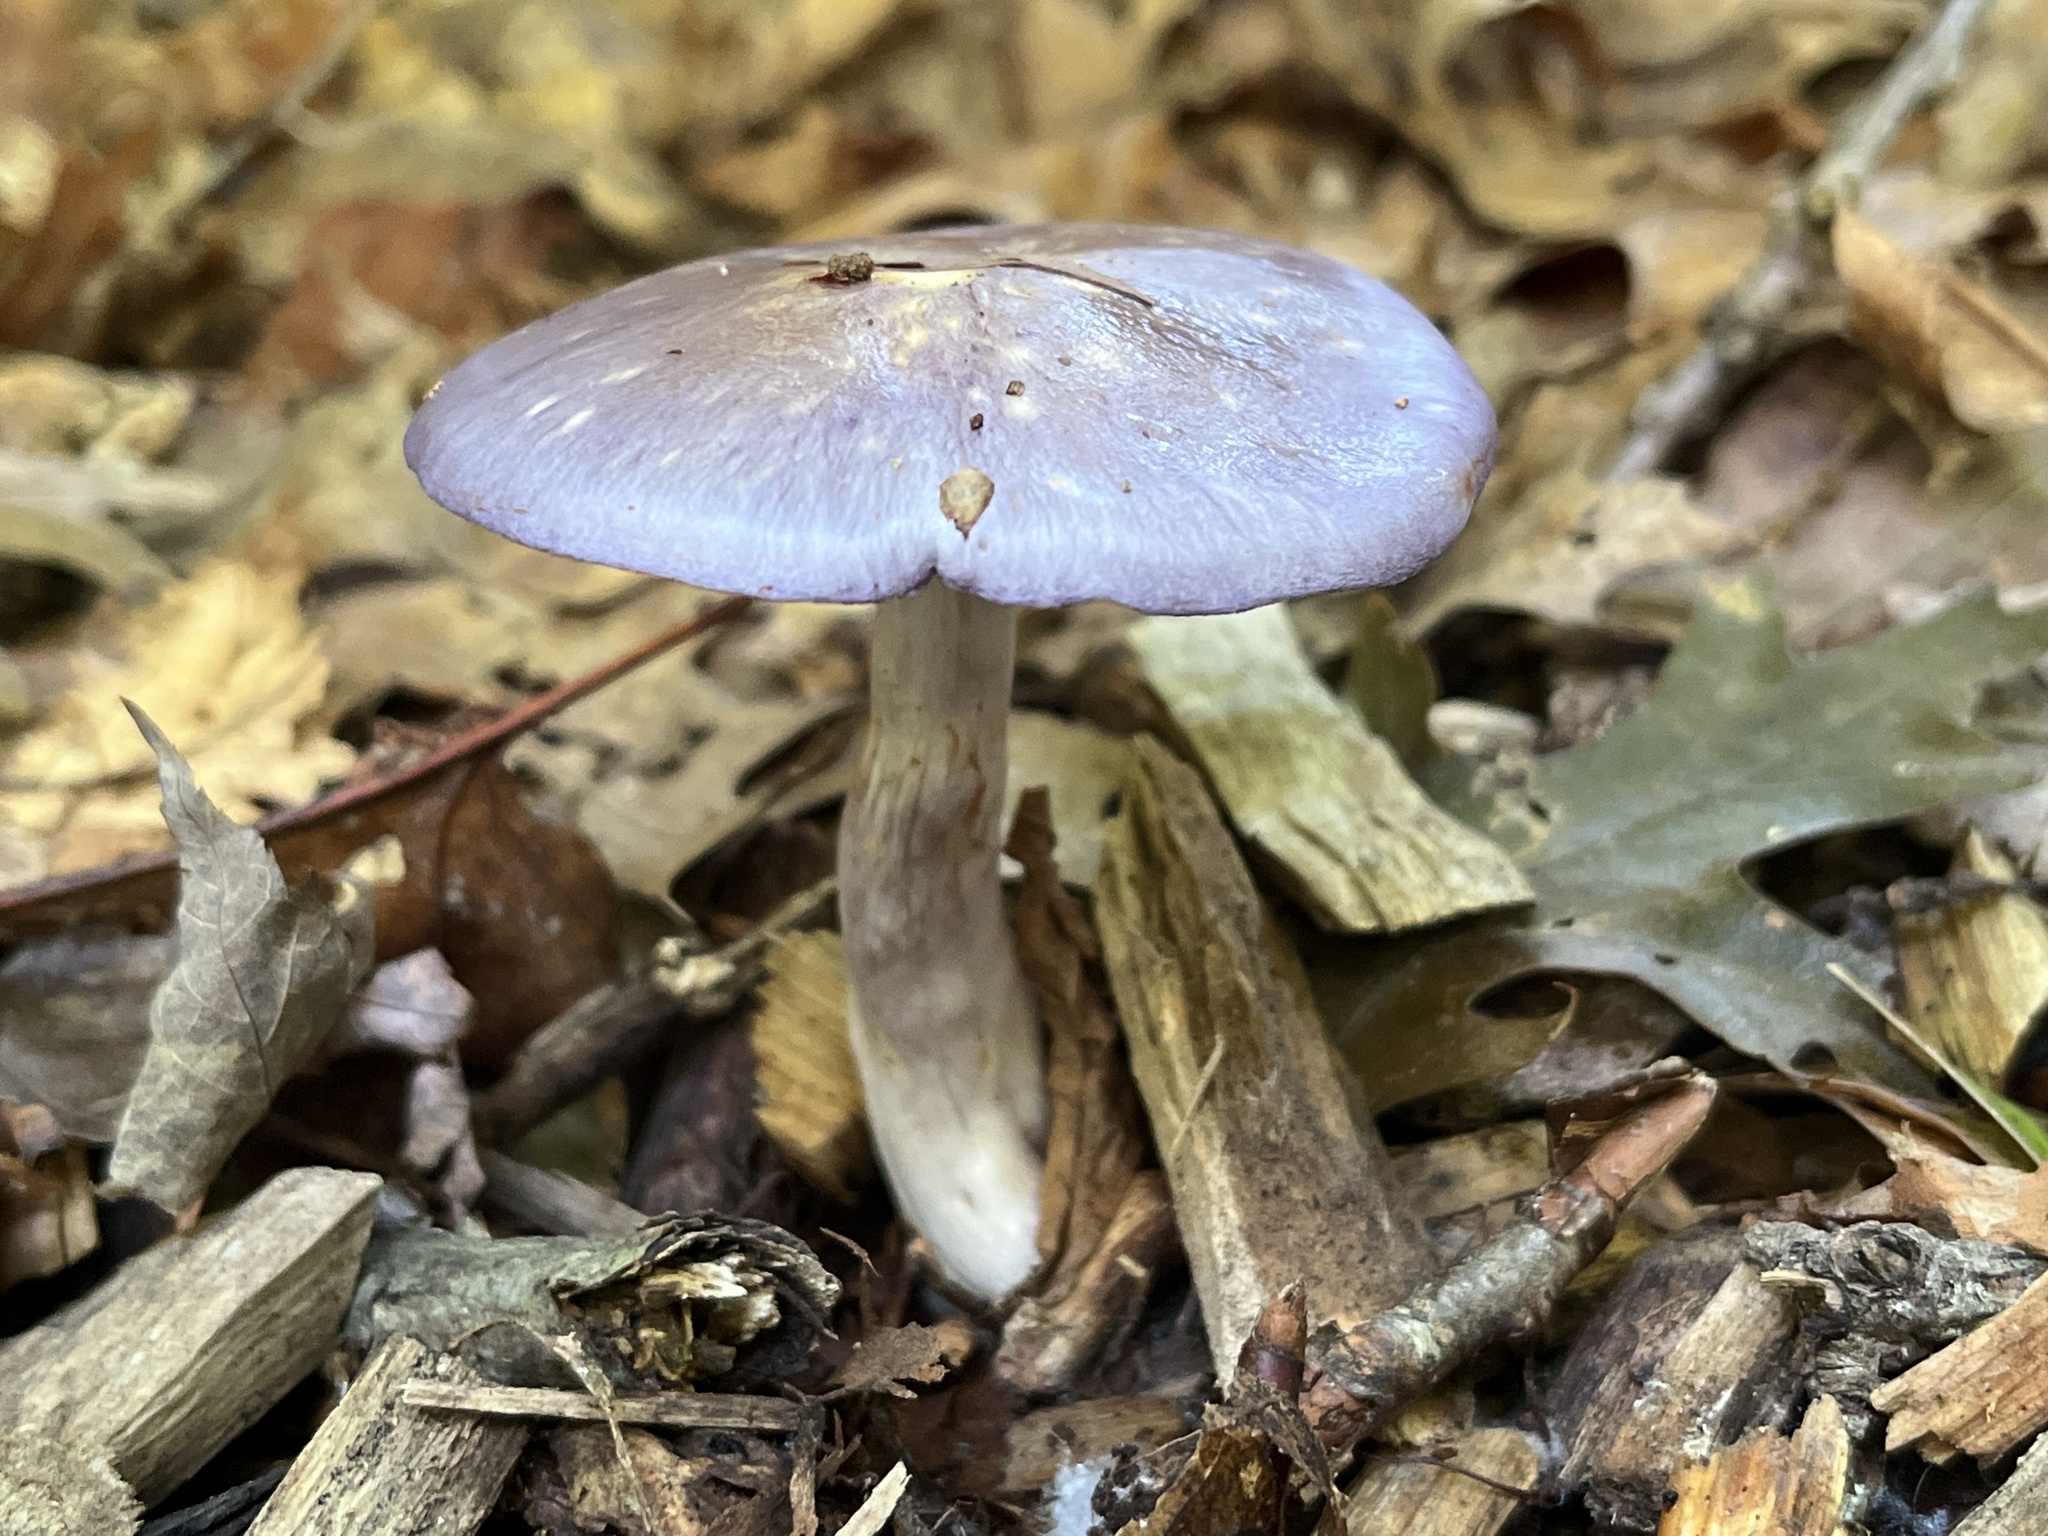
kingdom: Fungi
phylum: Basidiomycota
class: Agaricomycetes
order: Agaricales
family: Cortinariaceae
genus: Cortinarius
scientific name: Cortinarius
